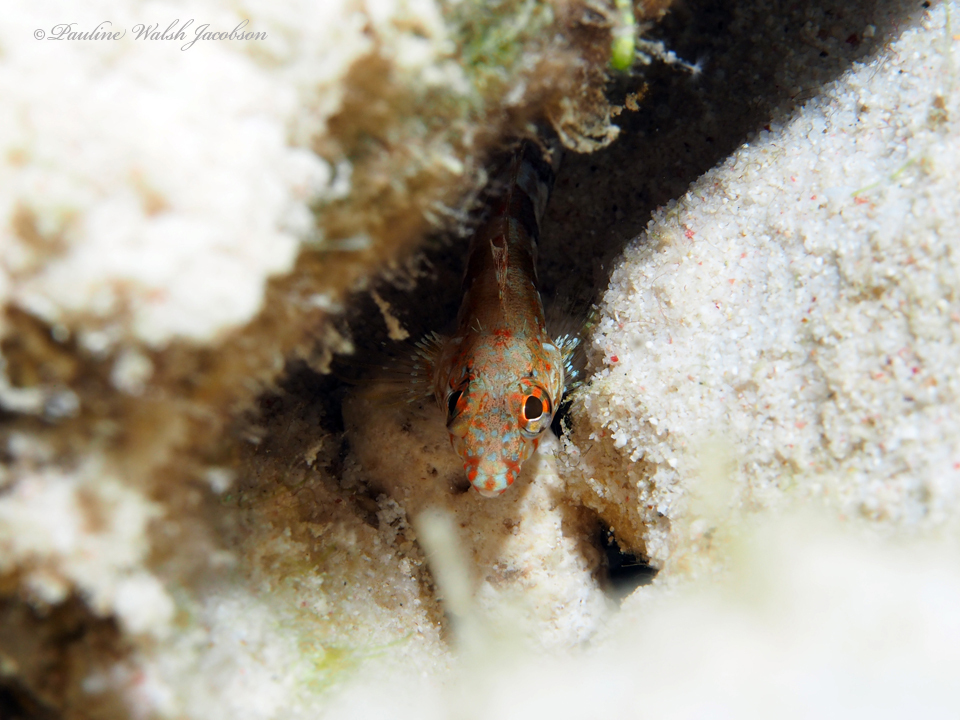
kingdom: Animalia
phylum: Chordata
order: Perciformes
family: Labrisomidae
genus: Malacoctenus
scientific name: Malacoctenus triangulatus
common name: Saddled blenny
